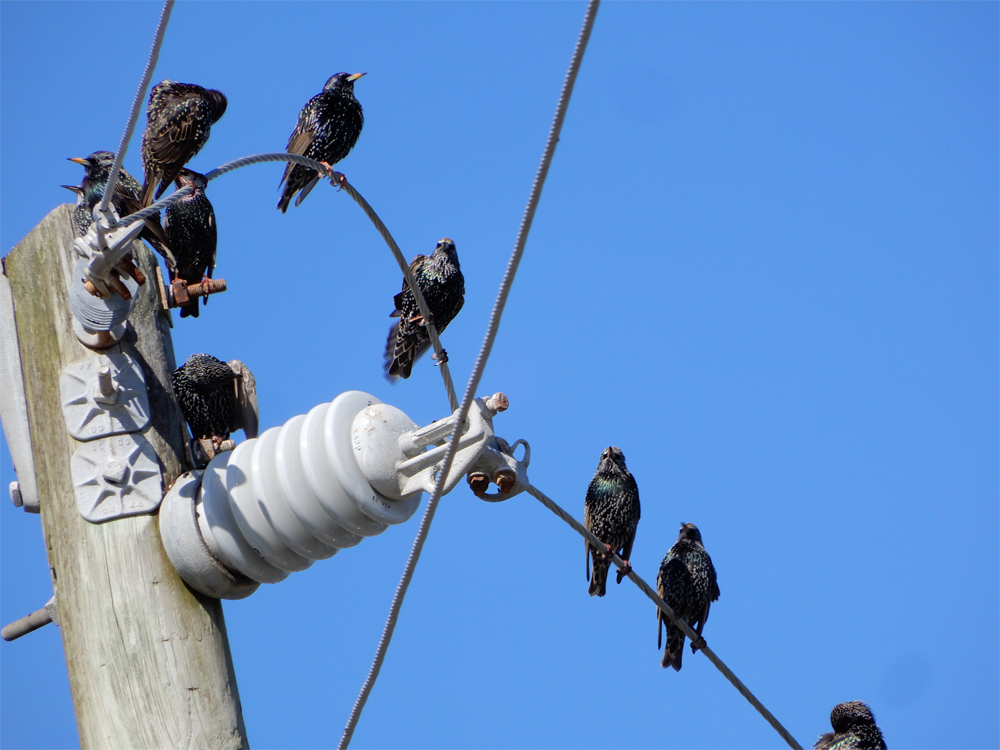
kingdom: Animalia
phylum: Chordata
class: Aves
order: Passeriformes
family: Sturnidae
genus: Sturnus
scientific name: Sturnus vulgaris
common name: Common starling
